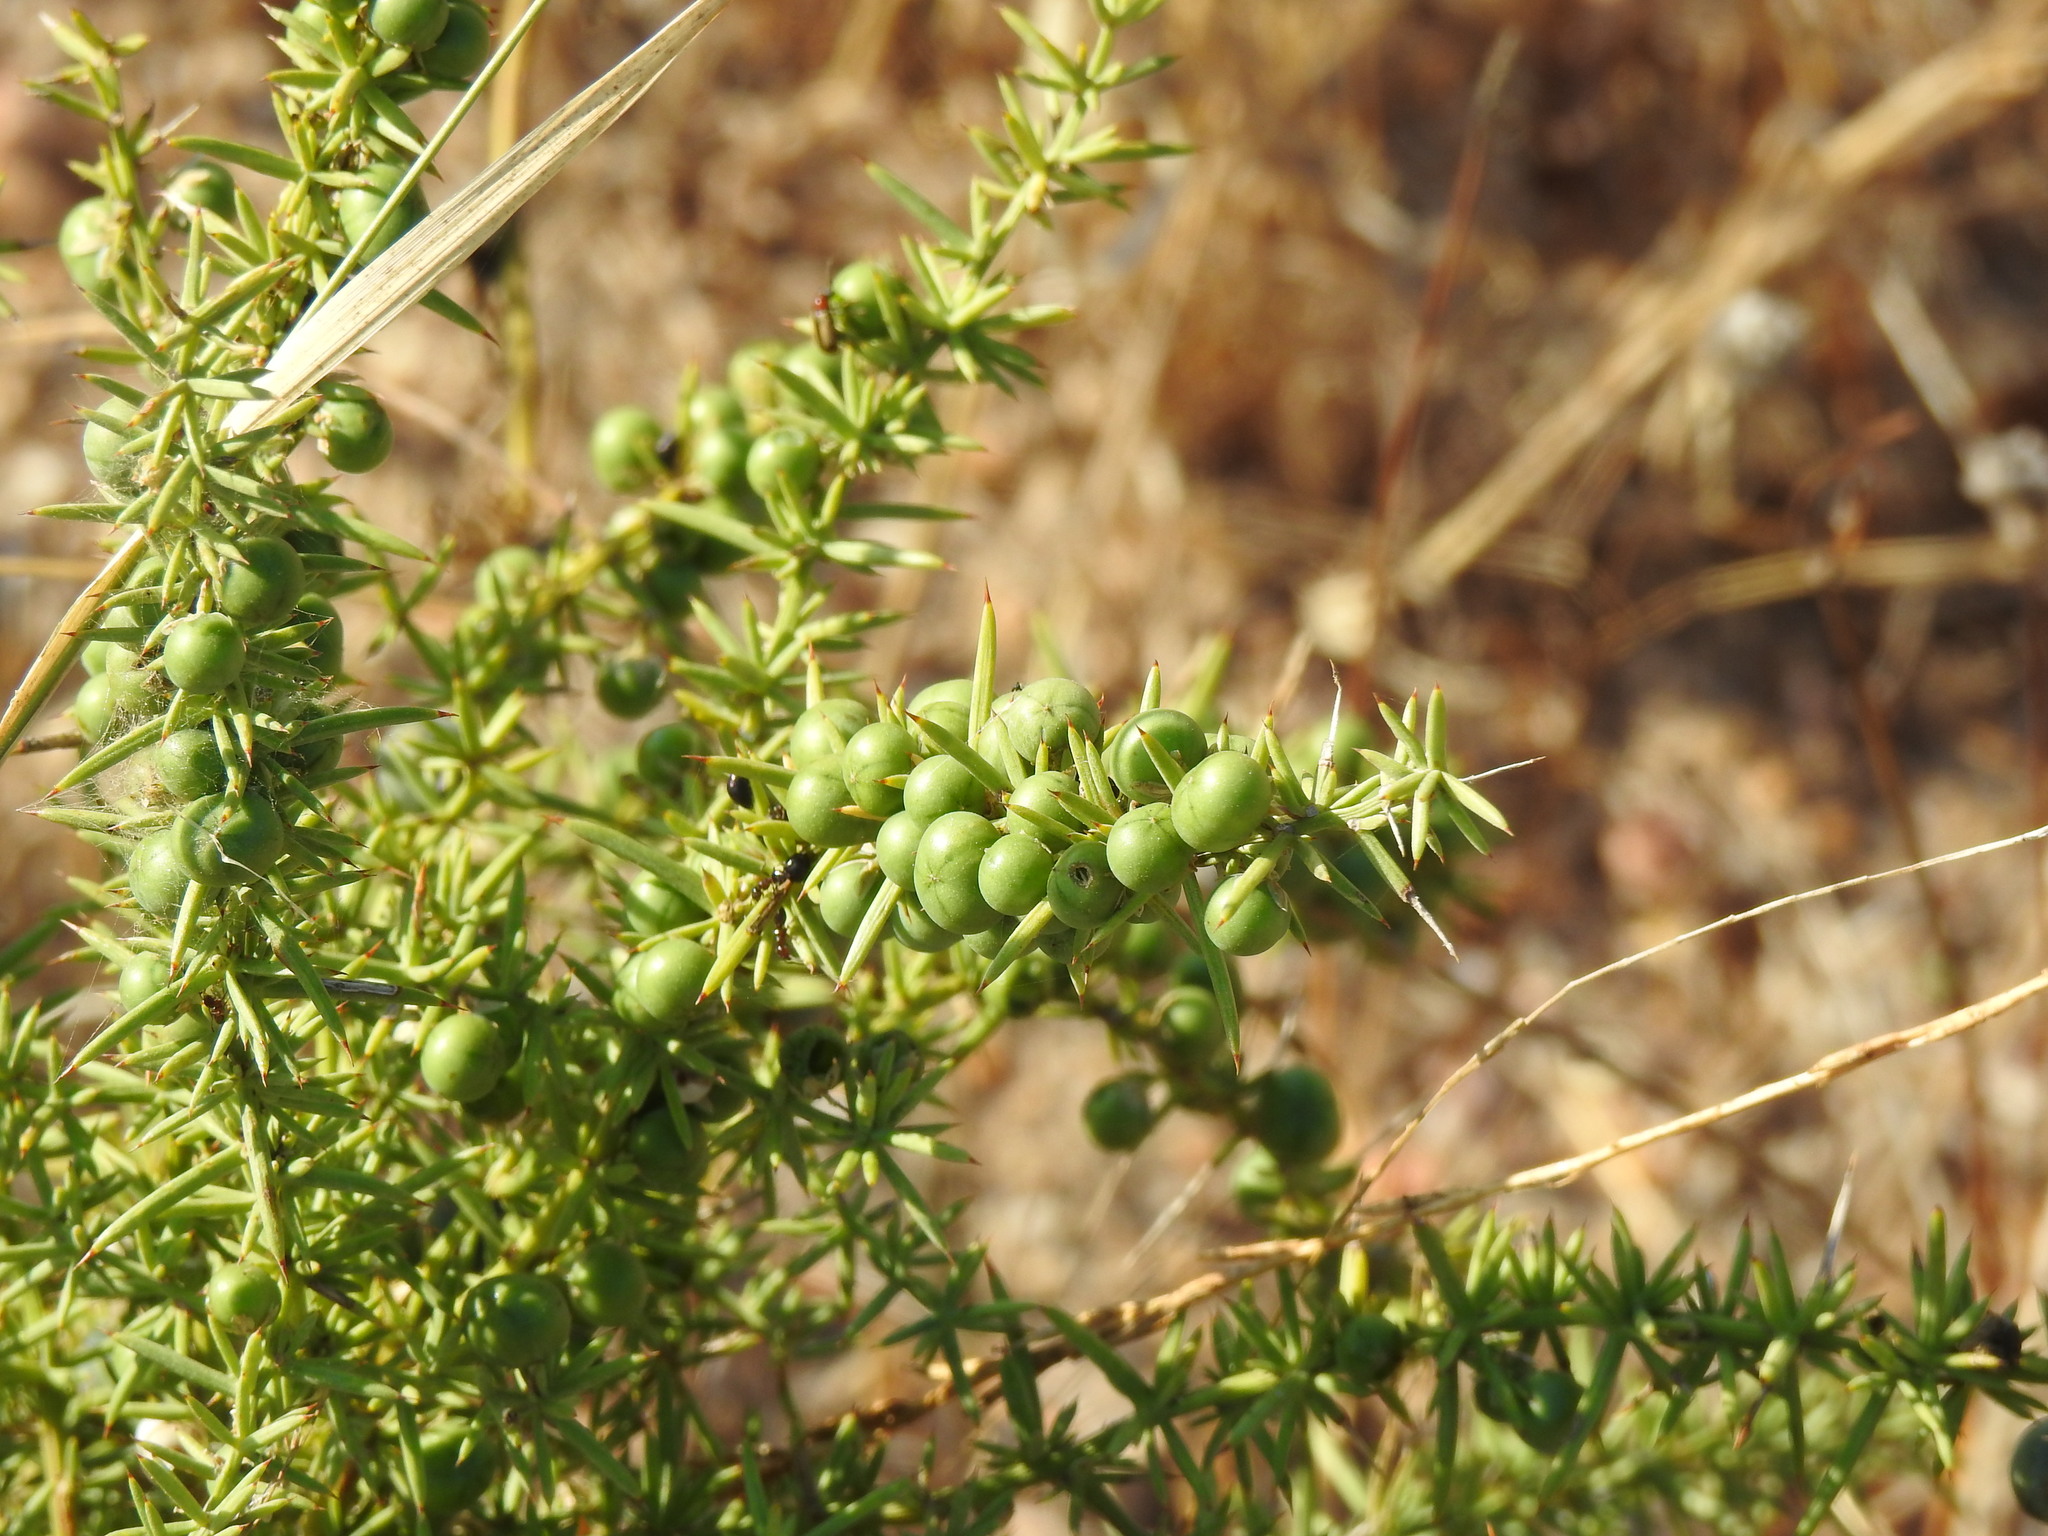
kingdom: Plantae
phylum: Tracheophyta
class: Liliopsida
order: Asparagales
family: Asparagaceae
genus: Asparagus
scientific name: Asparagus aphyllus
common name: Mediterranean asparagus
